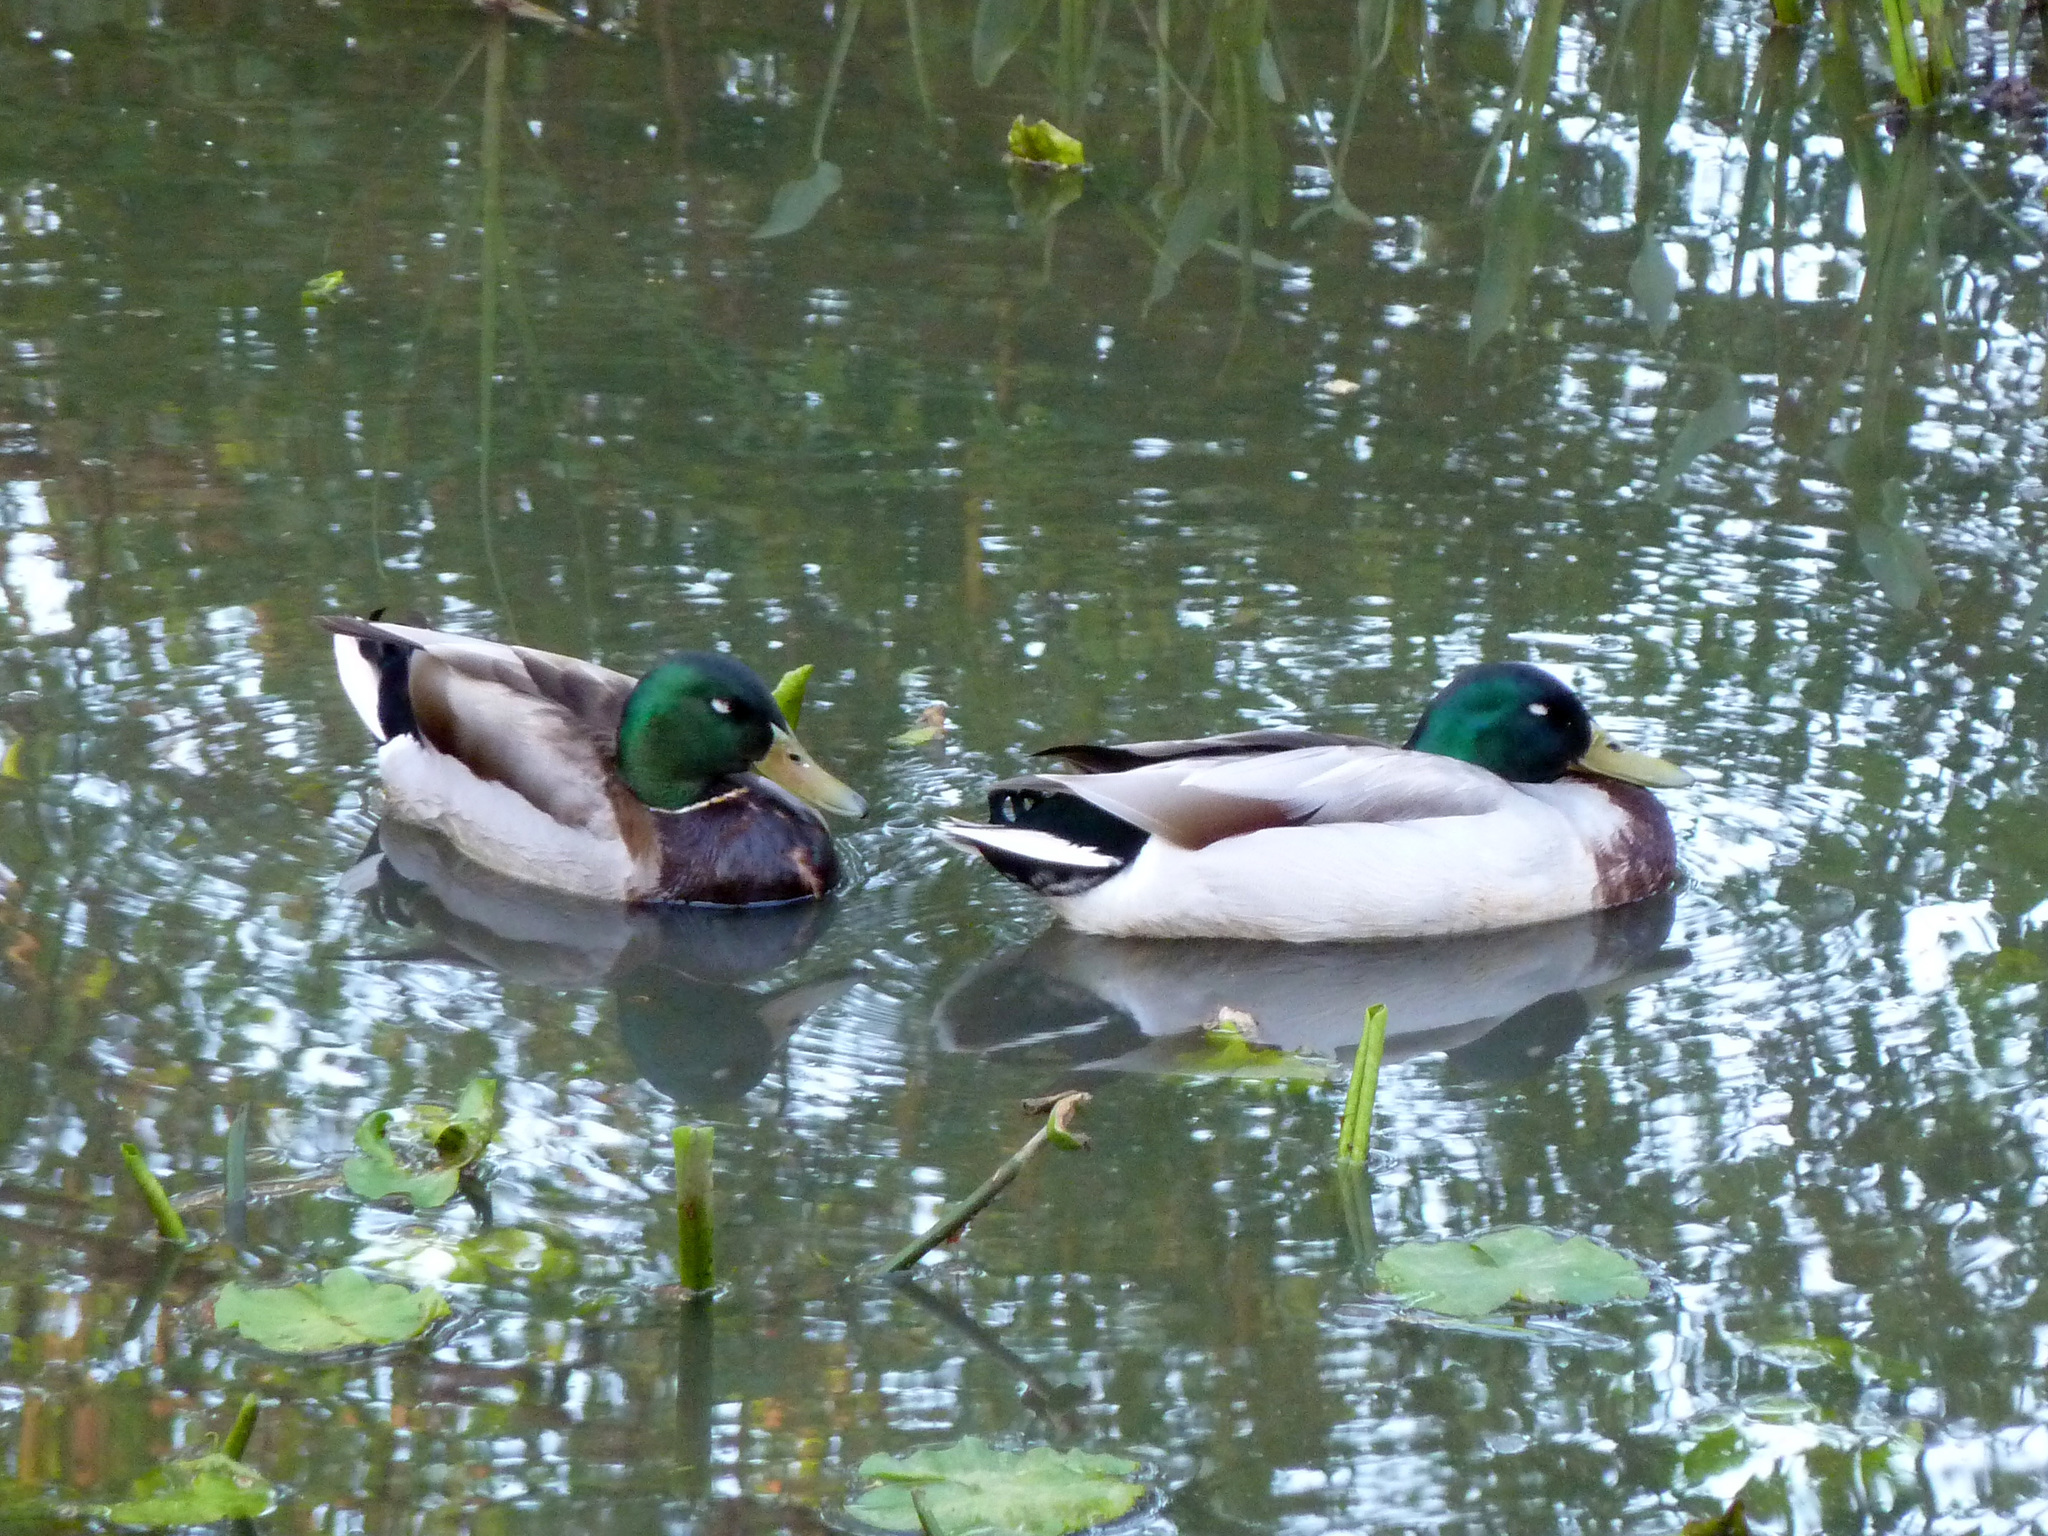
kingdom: Animalia
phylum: Chordata
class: Aves
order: Anseriformes
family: Anatidae
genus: Anas
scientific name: Anas platyrhynchos
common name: Mallard
